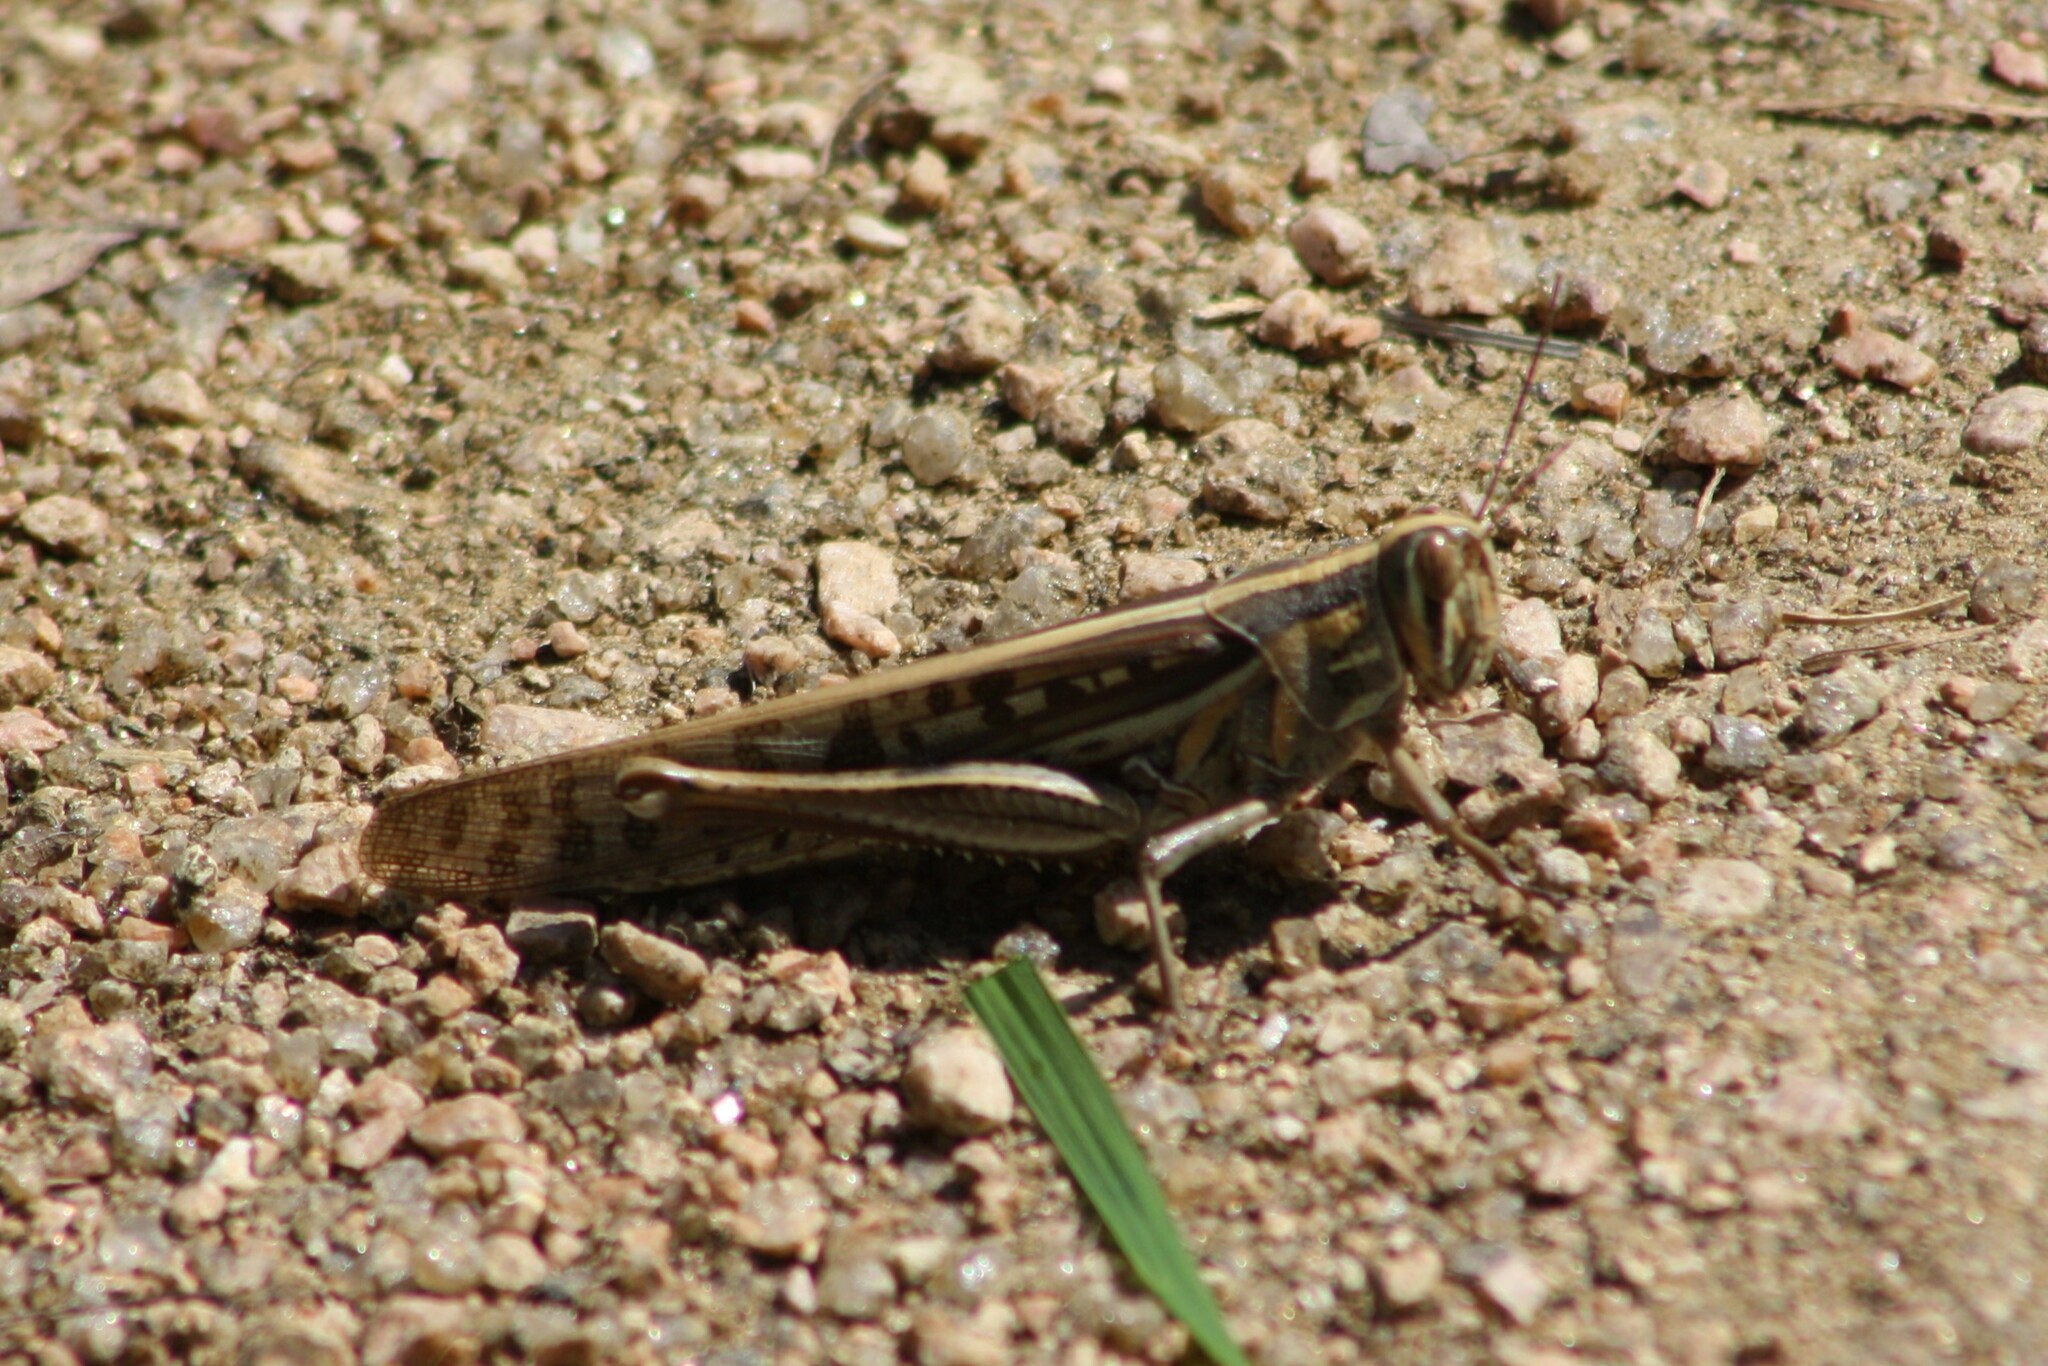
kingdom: Animalia
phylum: Arthropoda
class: Insecta
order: Orthoptera
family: Acrididae
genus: Schistocerca
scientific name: Schistocerca americana
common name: American bird locust
